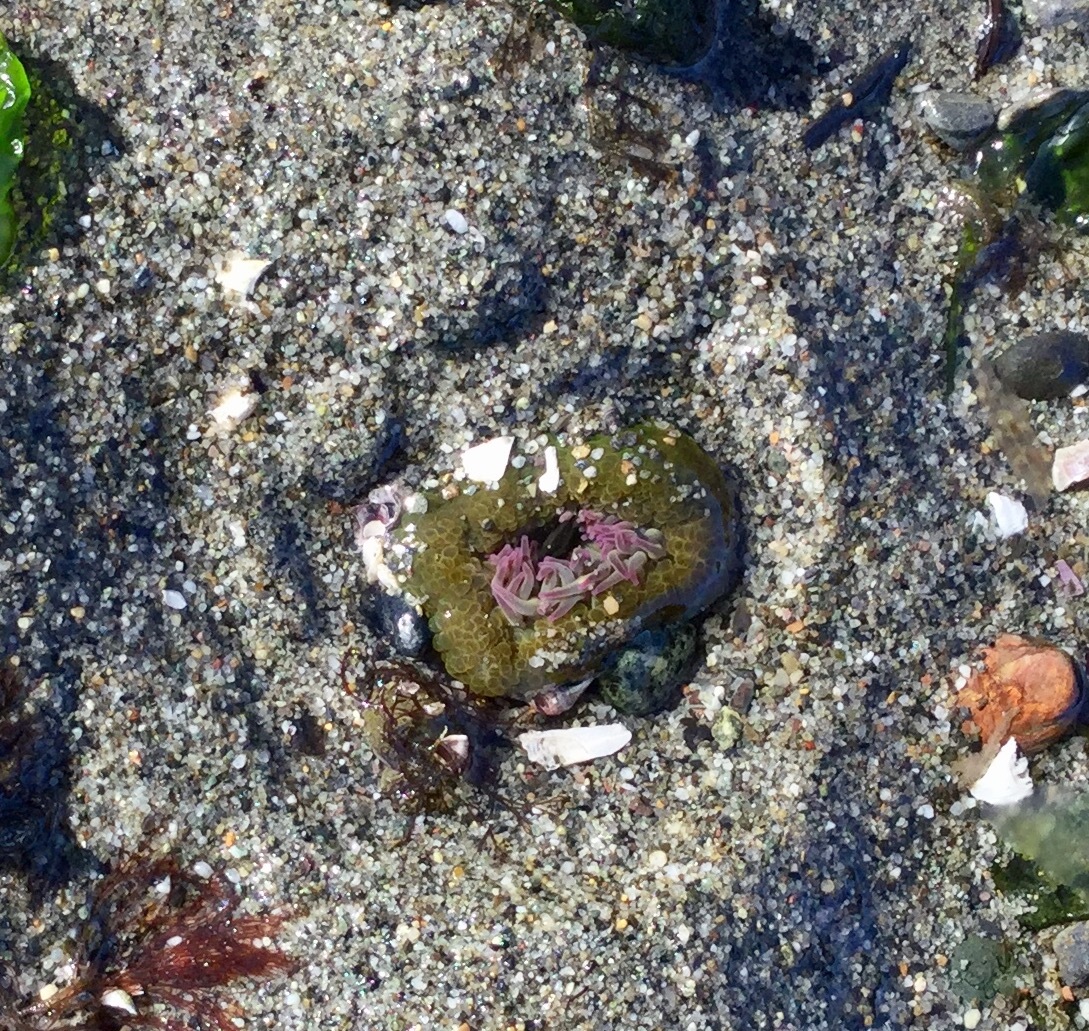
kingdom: Animalia
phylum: Cnidaria
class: Anthozoa
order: Actiniaria
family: Actiniidae
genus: Anthopleura
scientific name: Anthopleura elegantissima
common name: Clonal anemone
